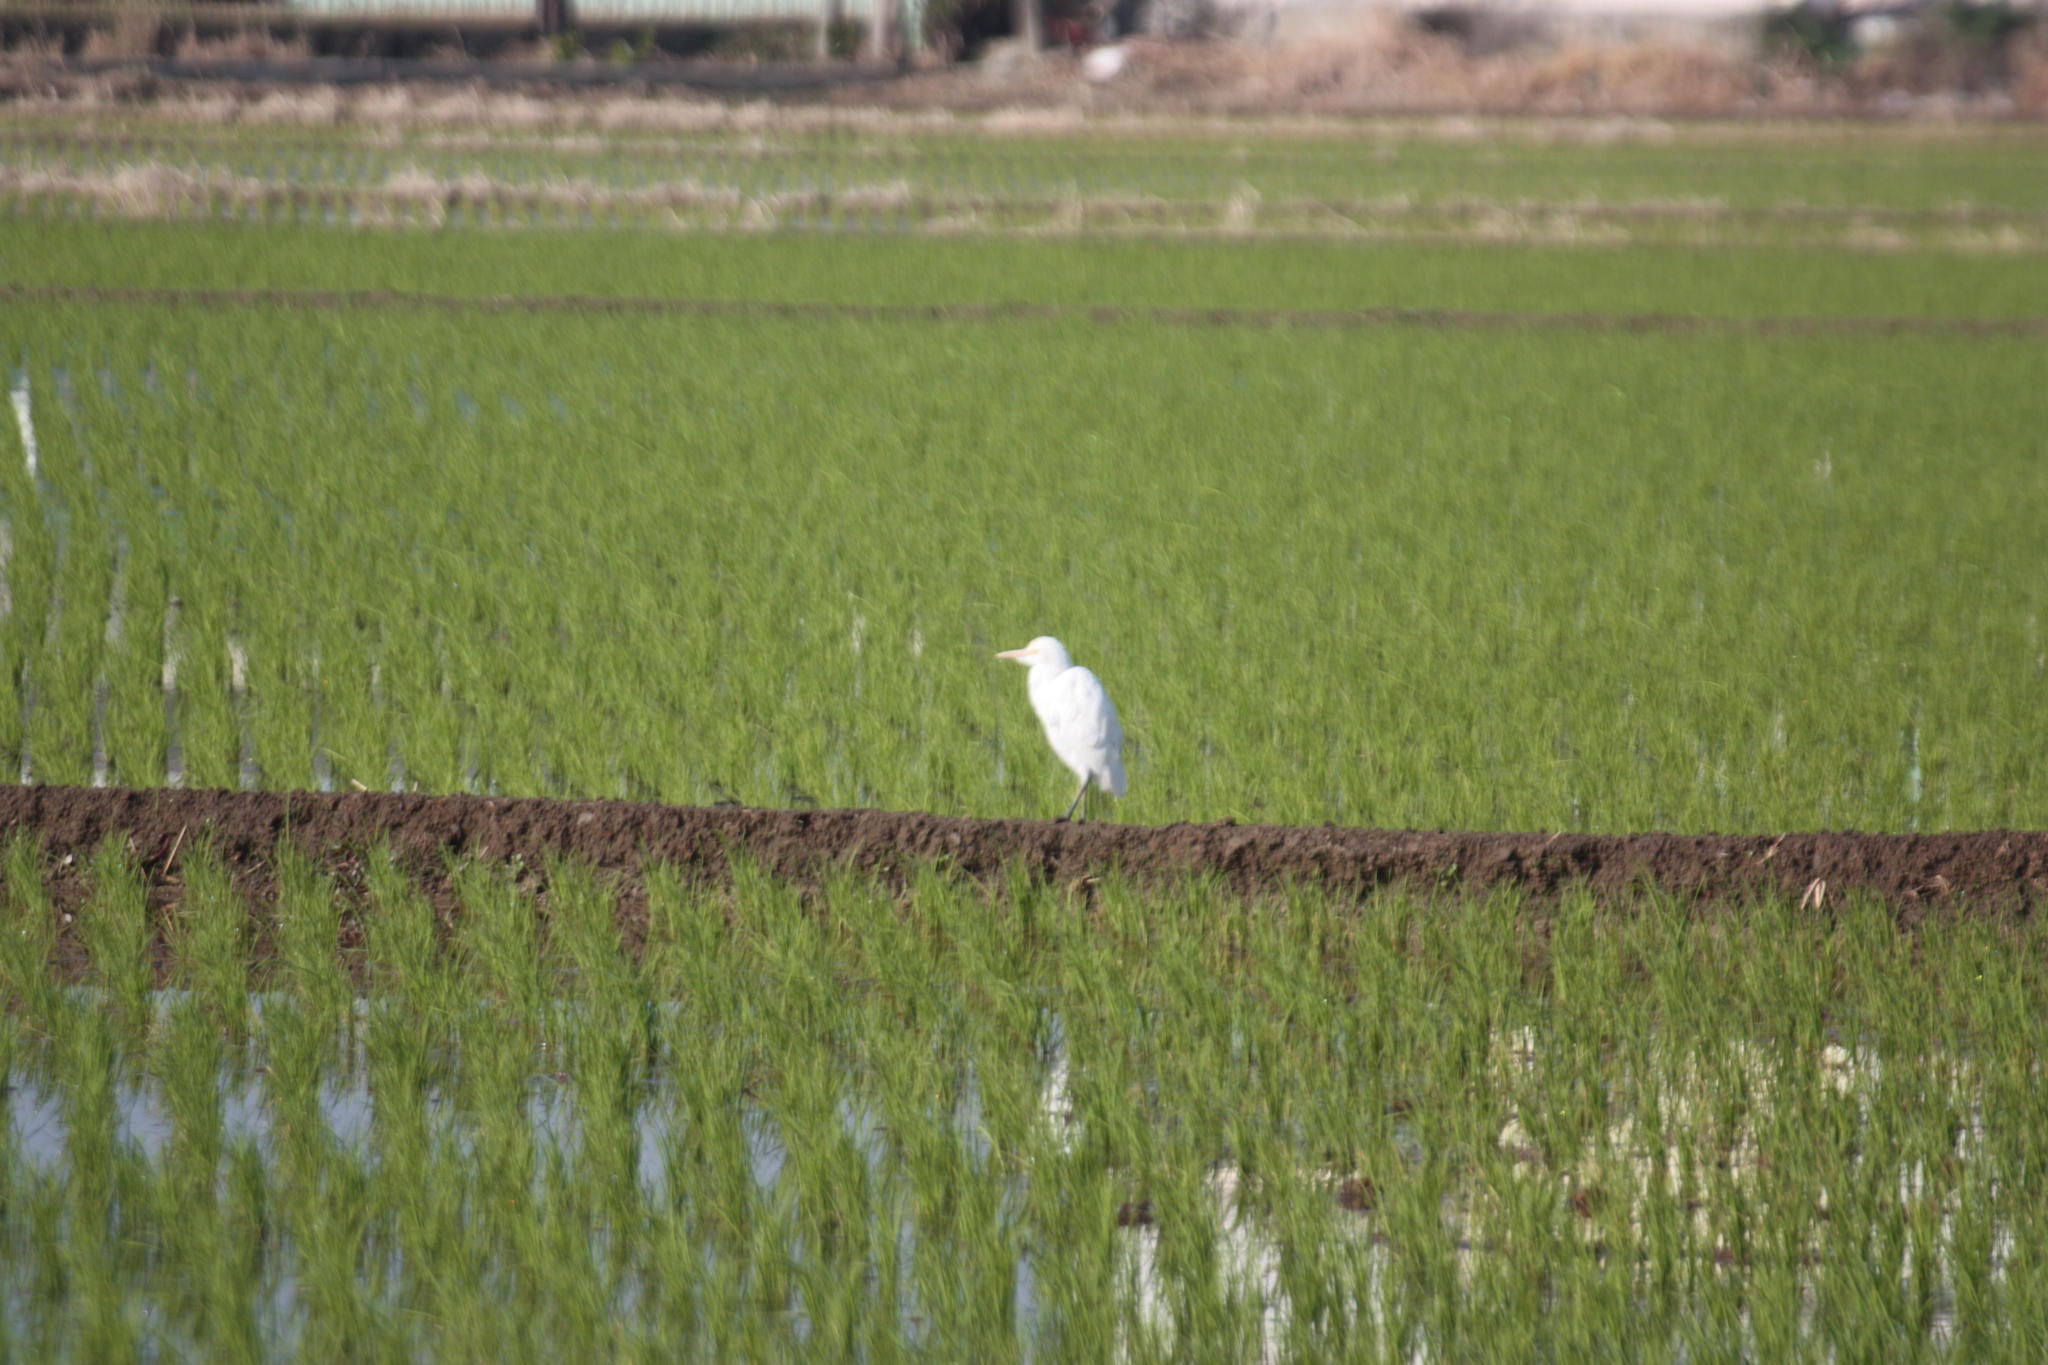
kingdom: Animalia
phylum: Chordata
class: Aves
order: Pelecaniformes
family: Ardeidae
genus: Bubulcus
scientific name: Bubulcus coromandus
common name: Eastern cattle egret
